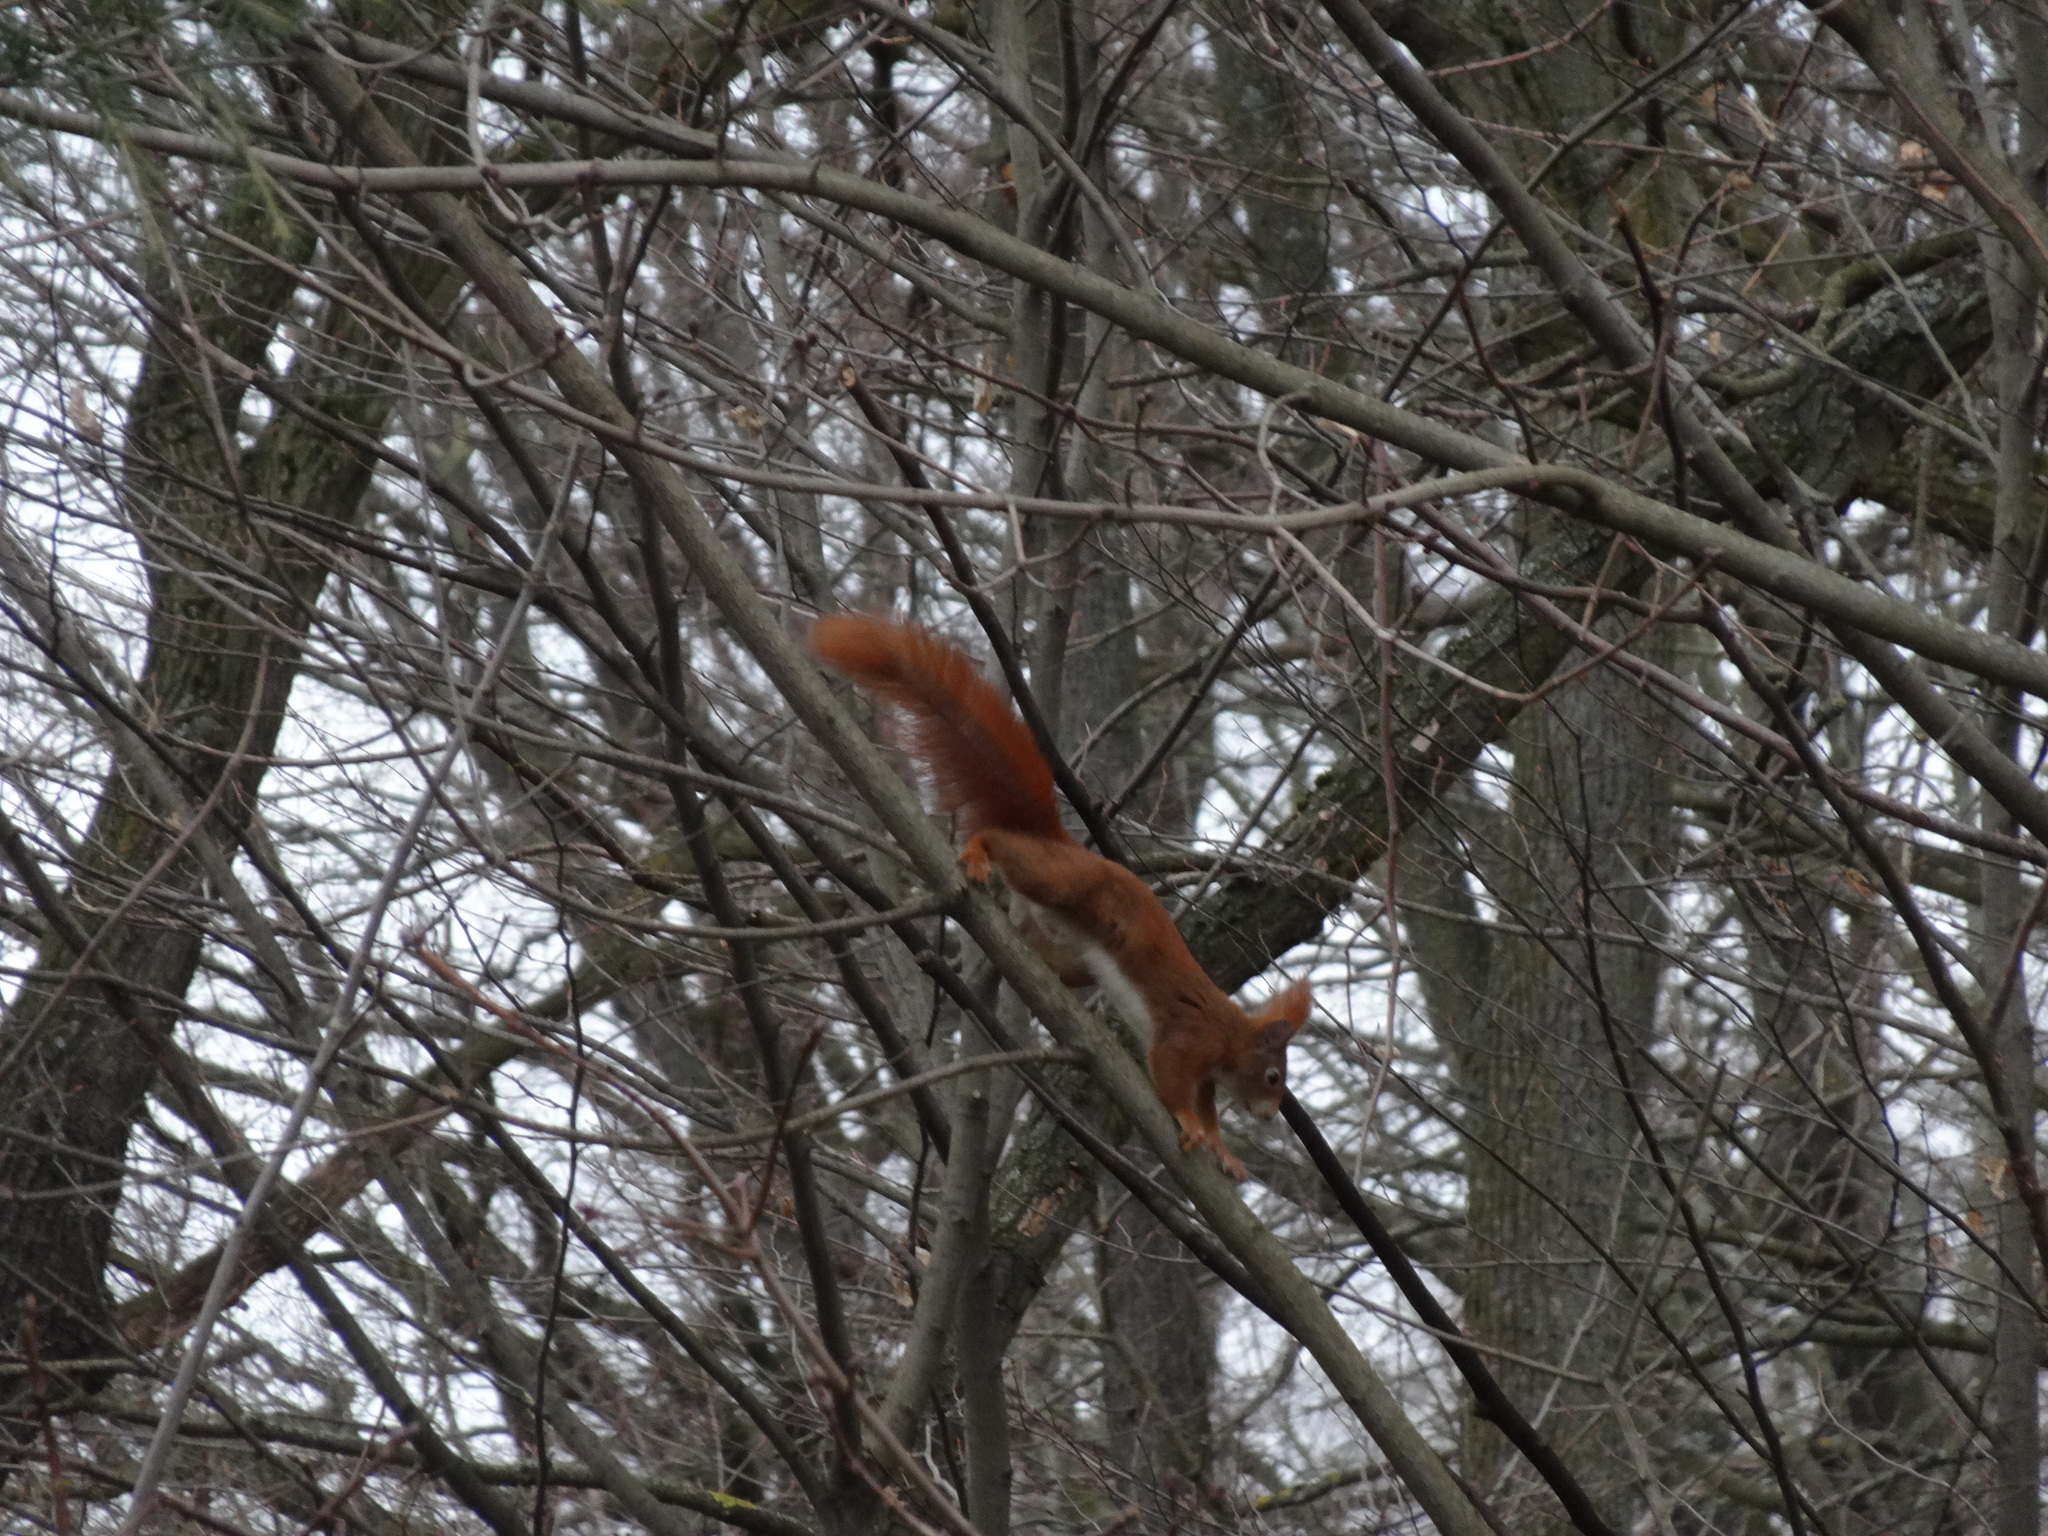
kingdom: Animalia
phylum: Chordata
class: Mammalia
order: Rodentia
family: Sciuridae
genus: Sciurus
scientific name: Sciurus vulgaris
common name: Eurasian red squirrel
